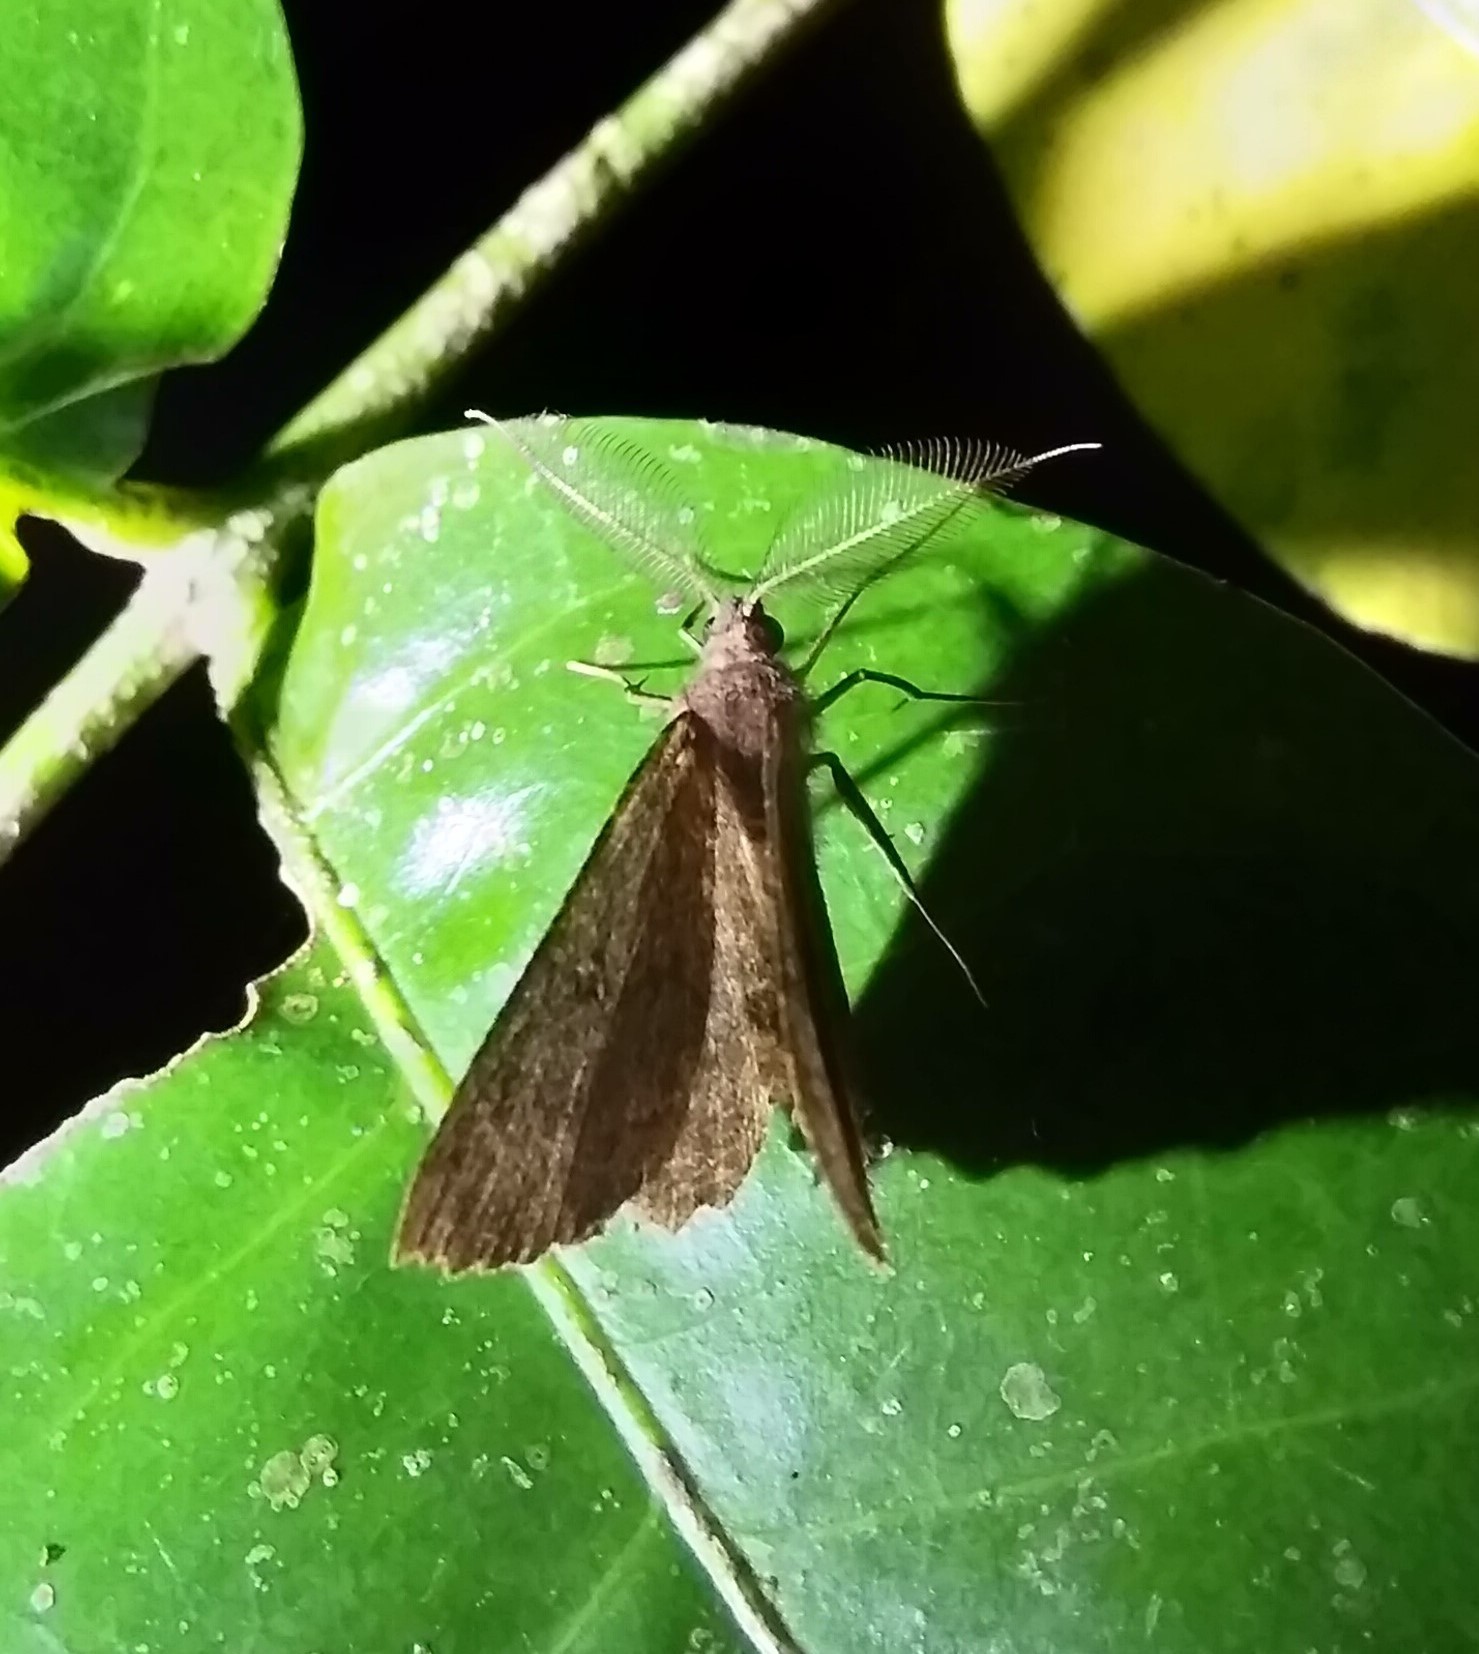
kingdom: Animalia
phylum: Arthropoda
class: Insecta
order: Lepidoptera
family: Geometridae
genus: Cleora
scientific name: Cleora scriptaria
